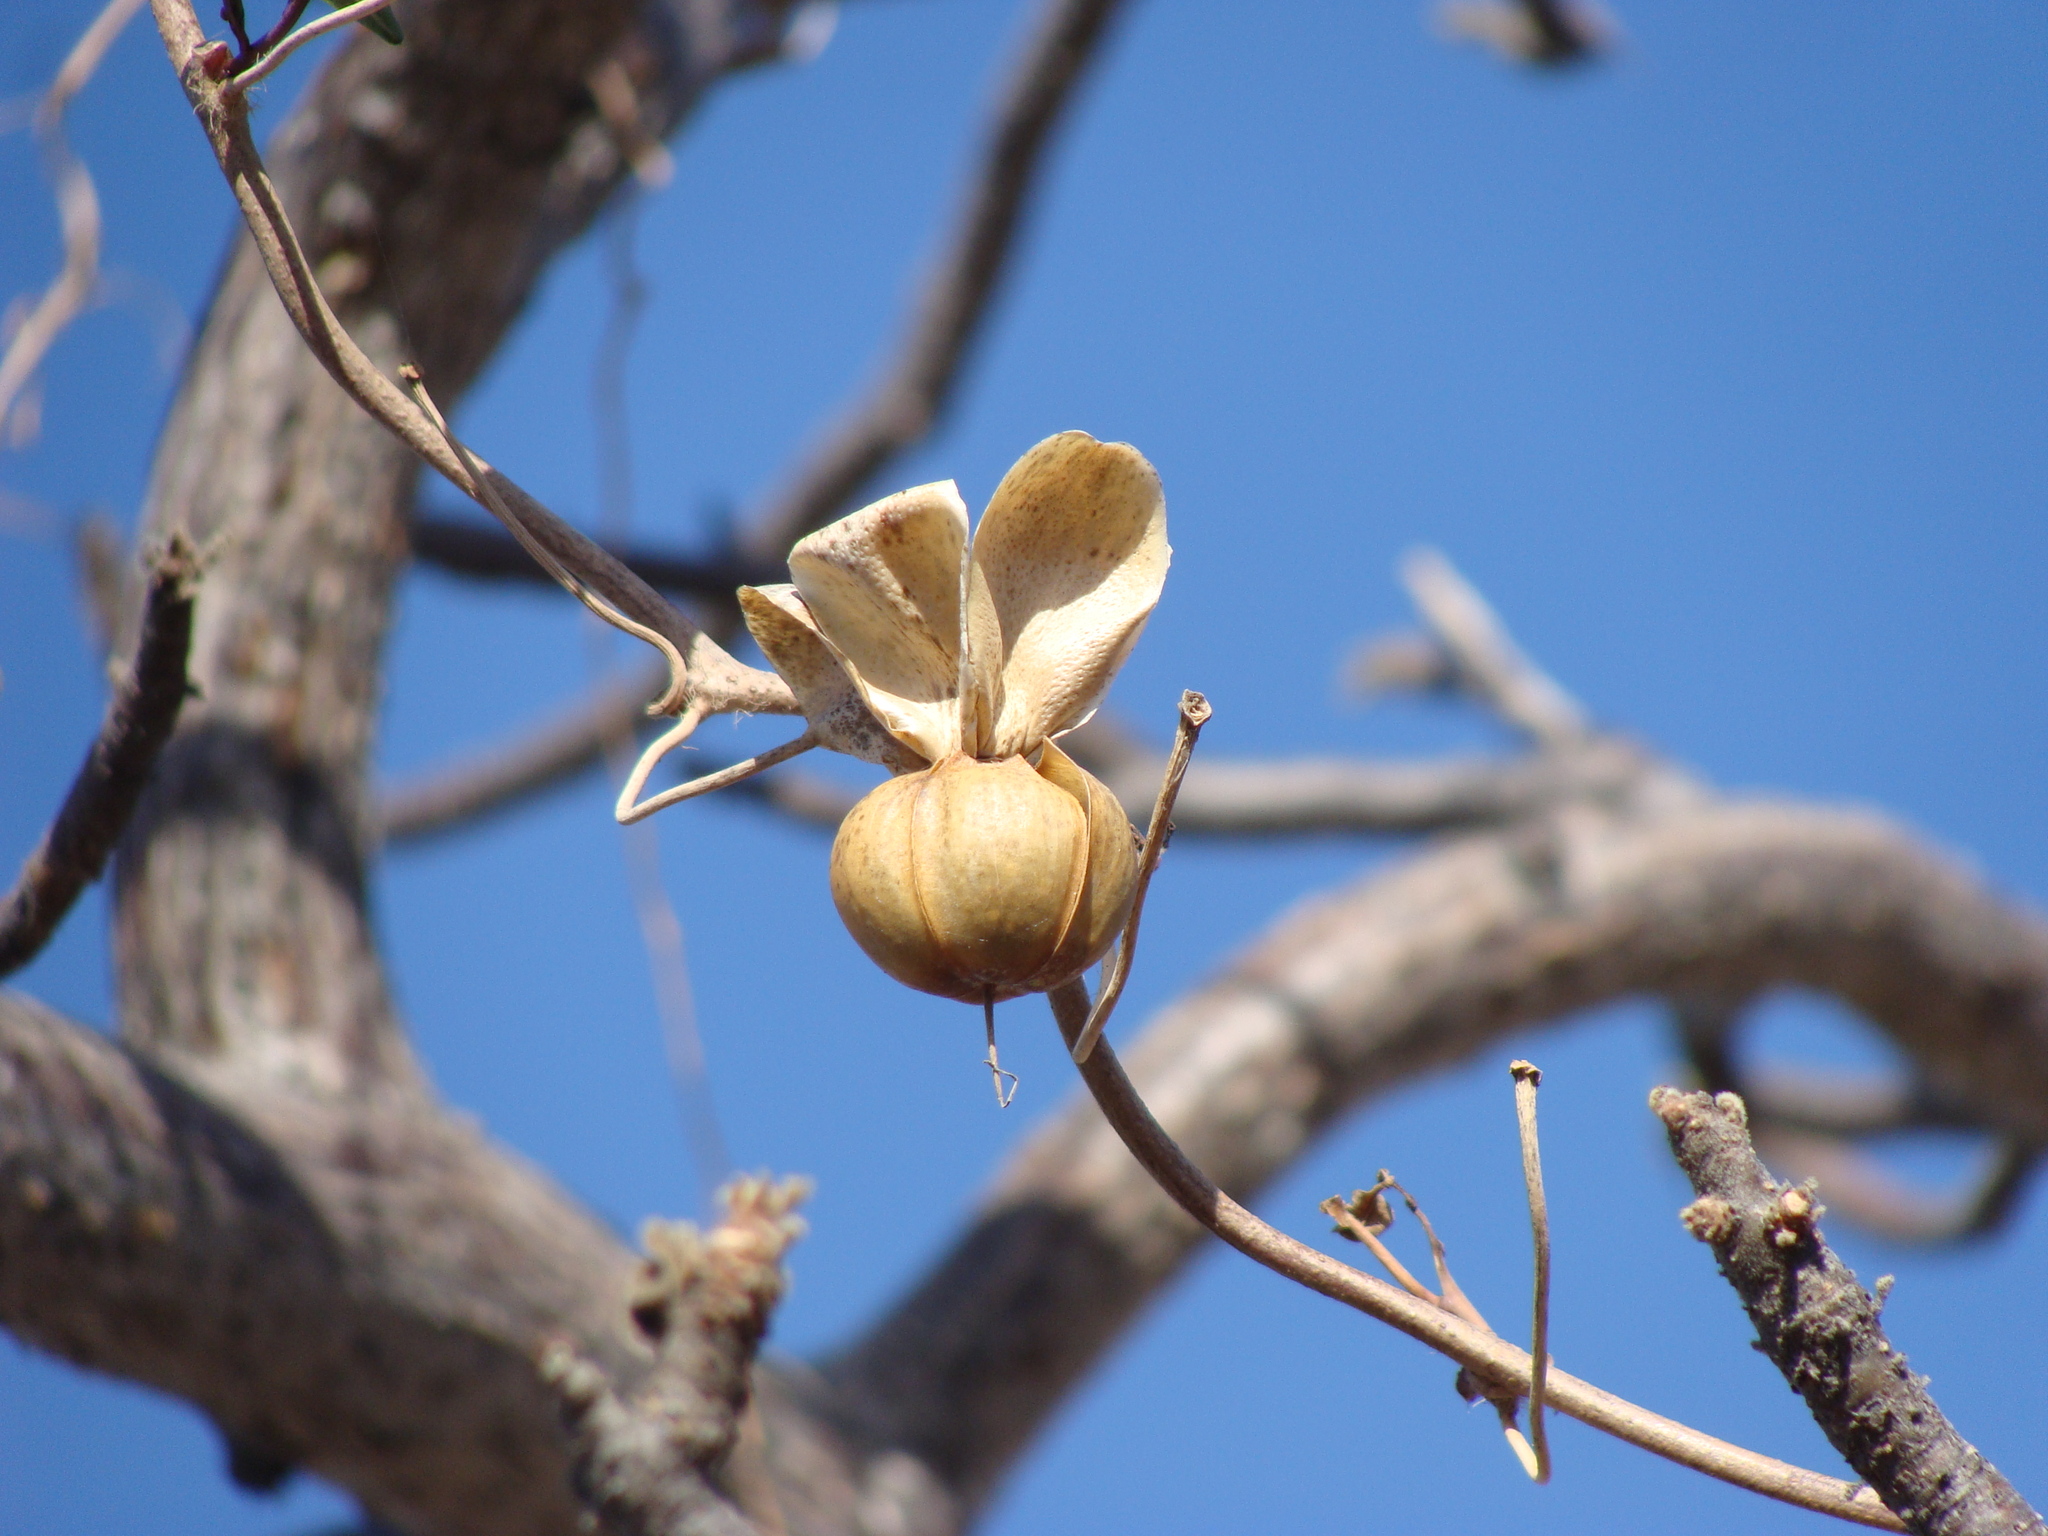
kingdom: Plantae
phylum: Tracheophyta
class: Magnoliopsida
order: Solanales
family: Convolvulaceae
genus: Distimake
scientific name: Distimake aureus
